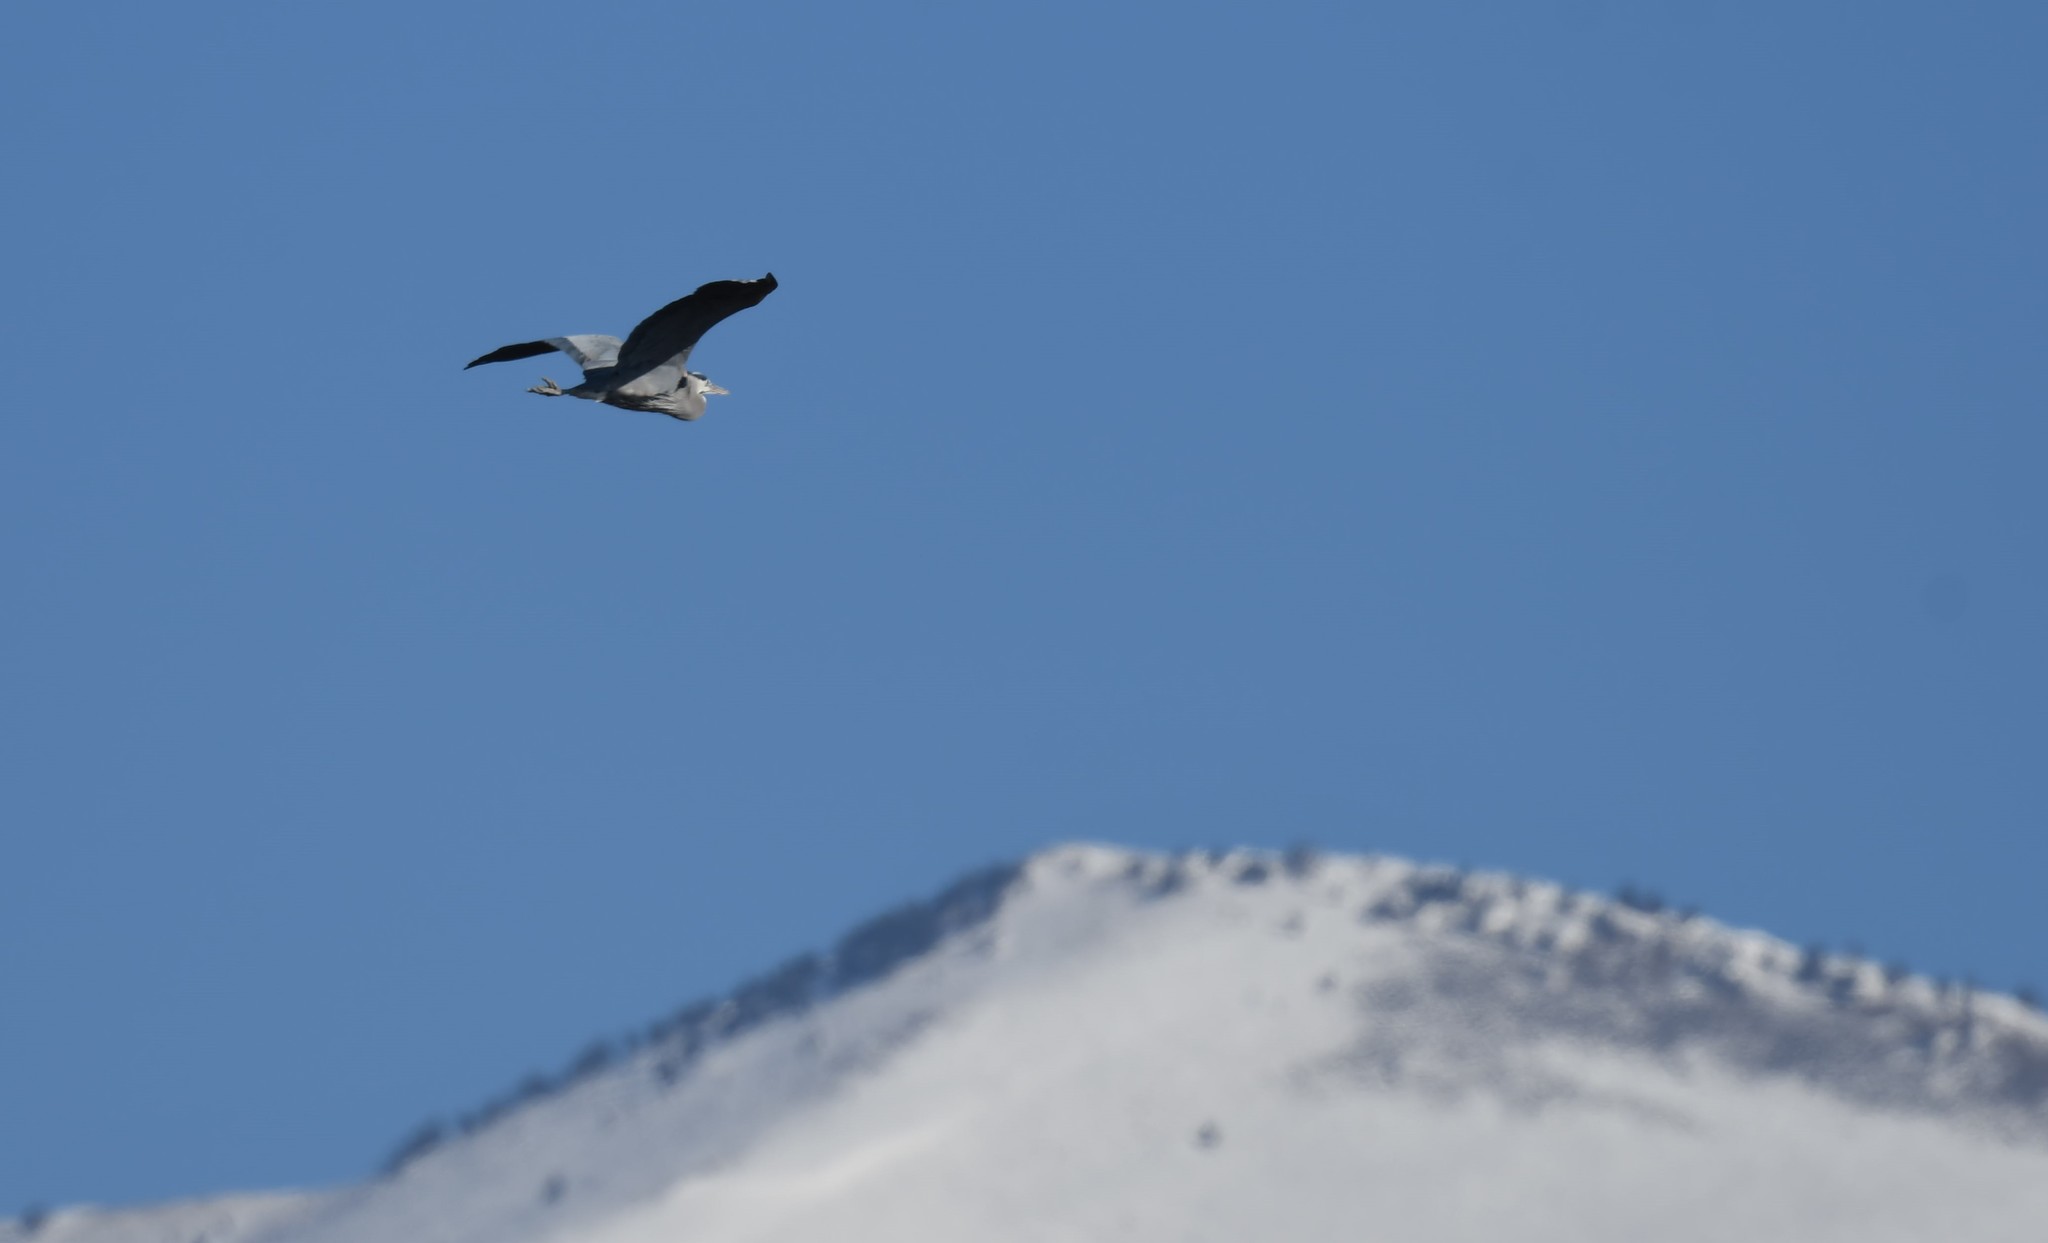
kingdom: Animalia
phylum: Chordata
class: Aves
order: Pelecaniformes
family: Ardeidae
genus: Ardea
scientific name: Ardea herodias
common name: Great blue heron
